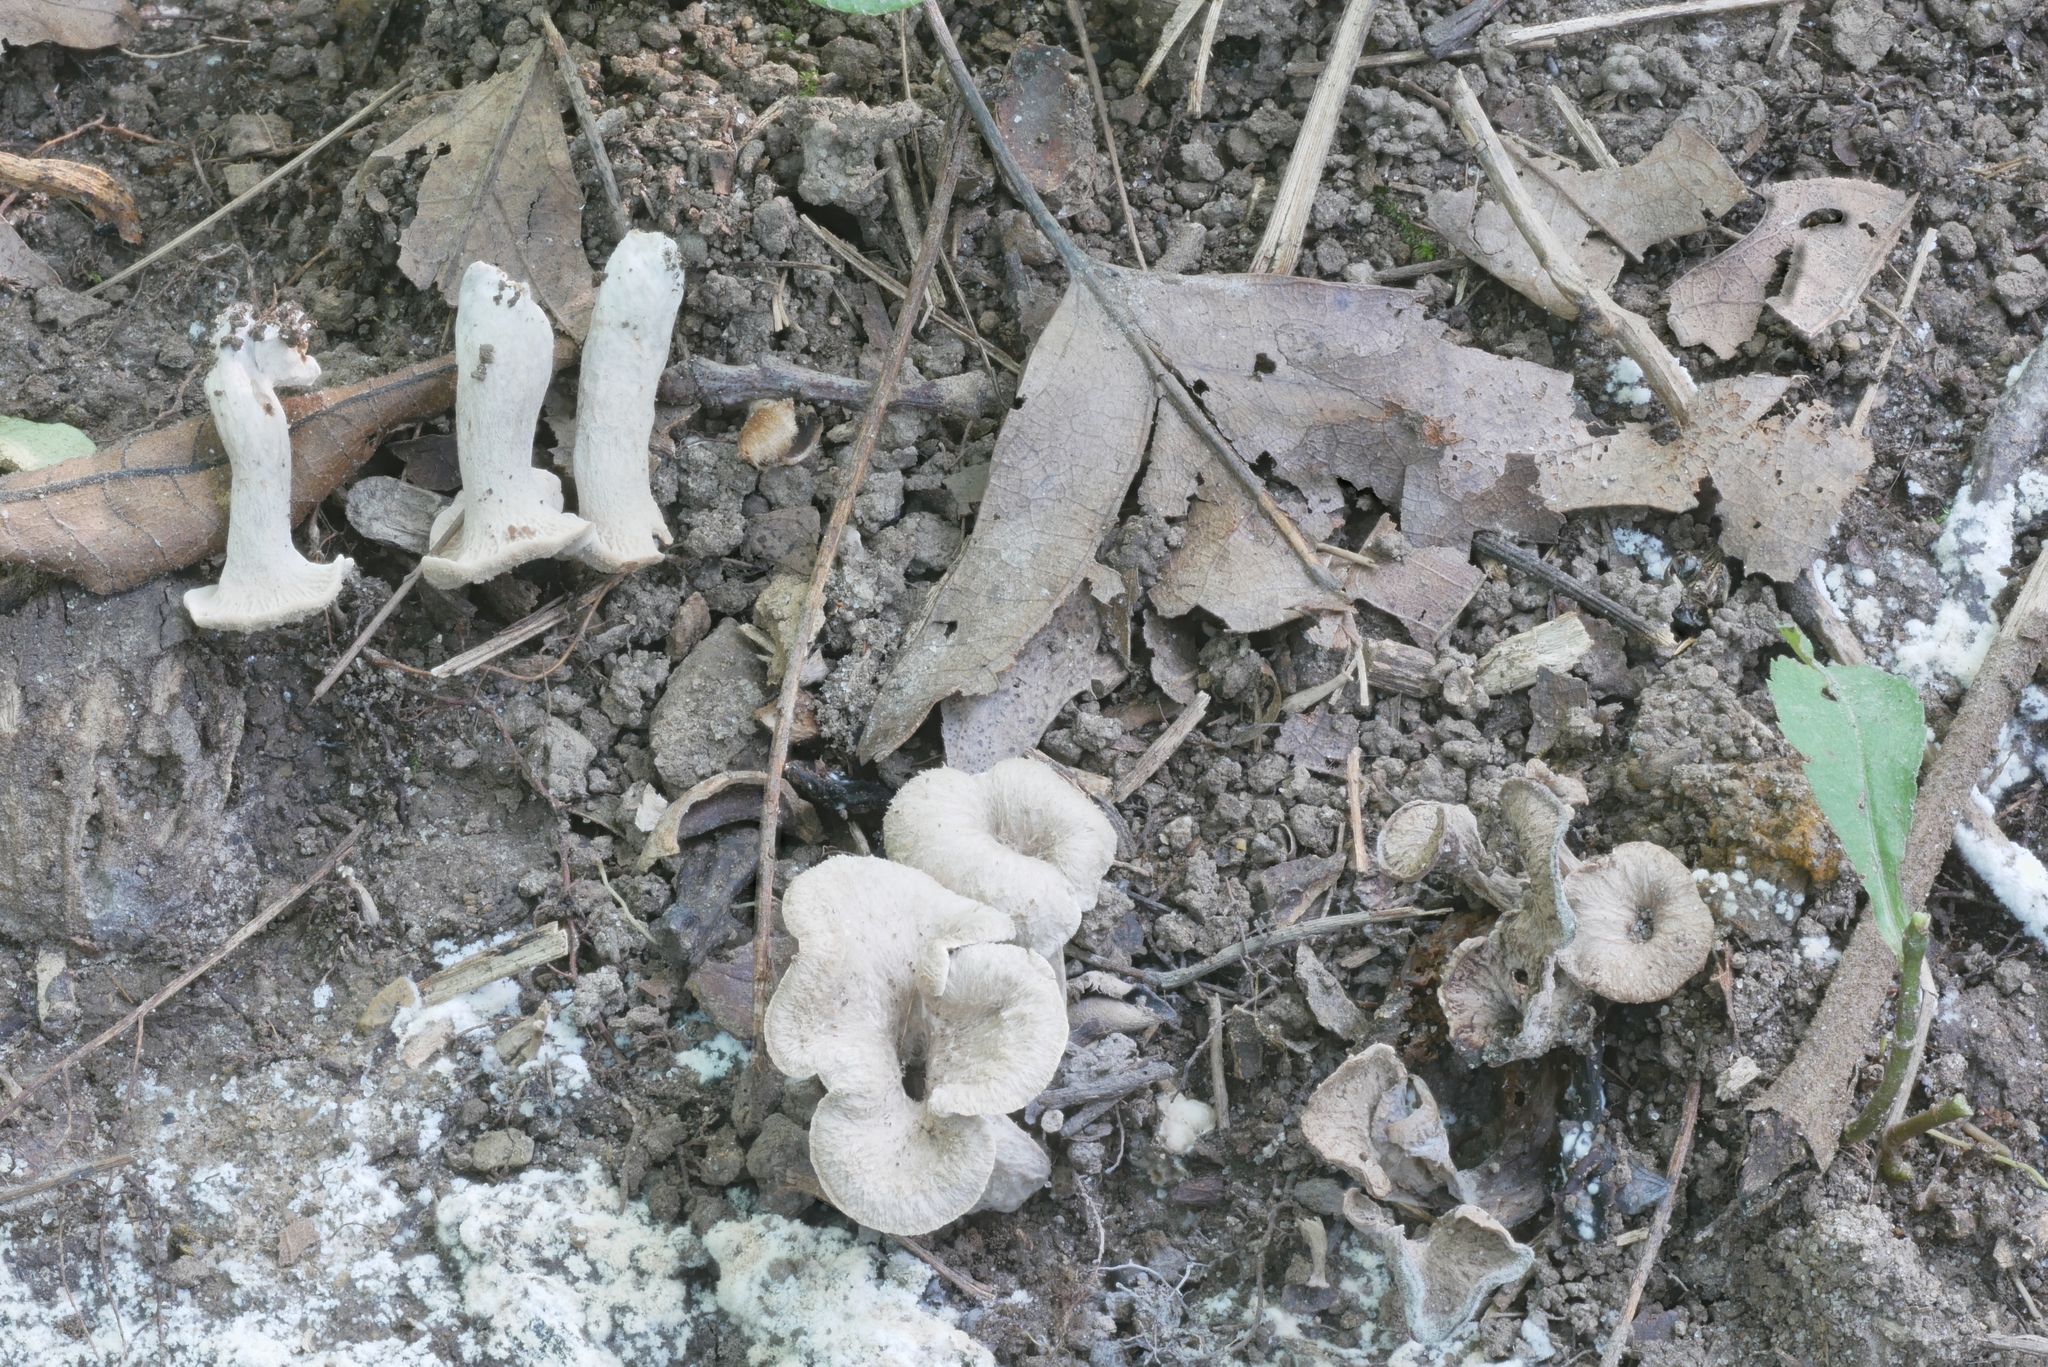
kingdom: Fungi
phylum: Basidiomycota
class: Agaricomycetes
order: Cantharellales
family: Hydnaceae
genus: Craterellus
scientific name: Craterellus foetidus
